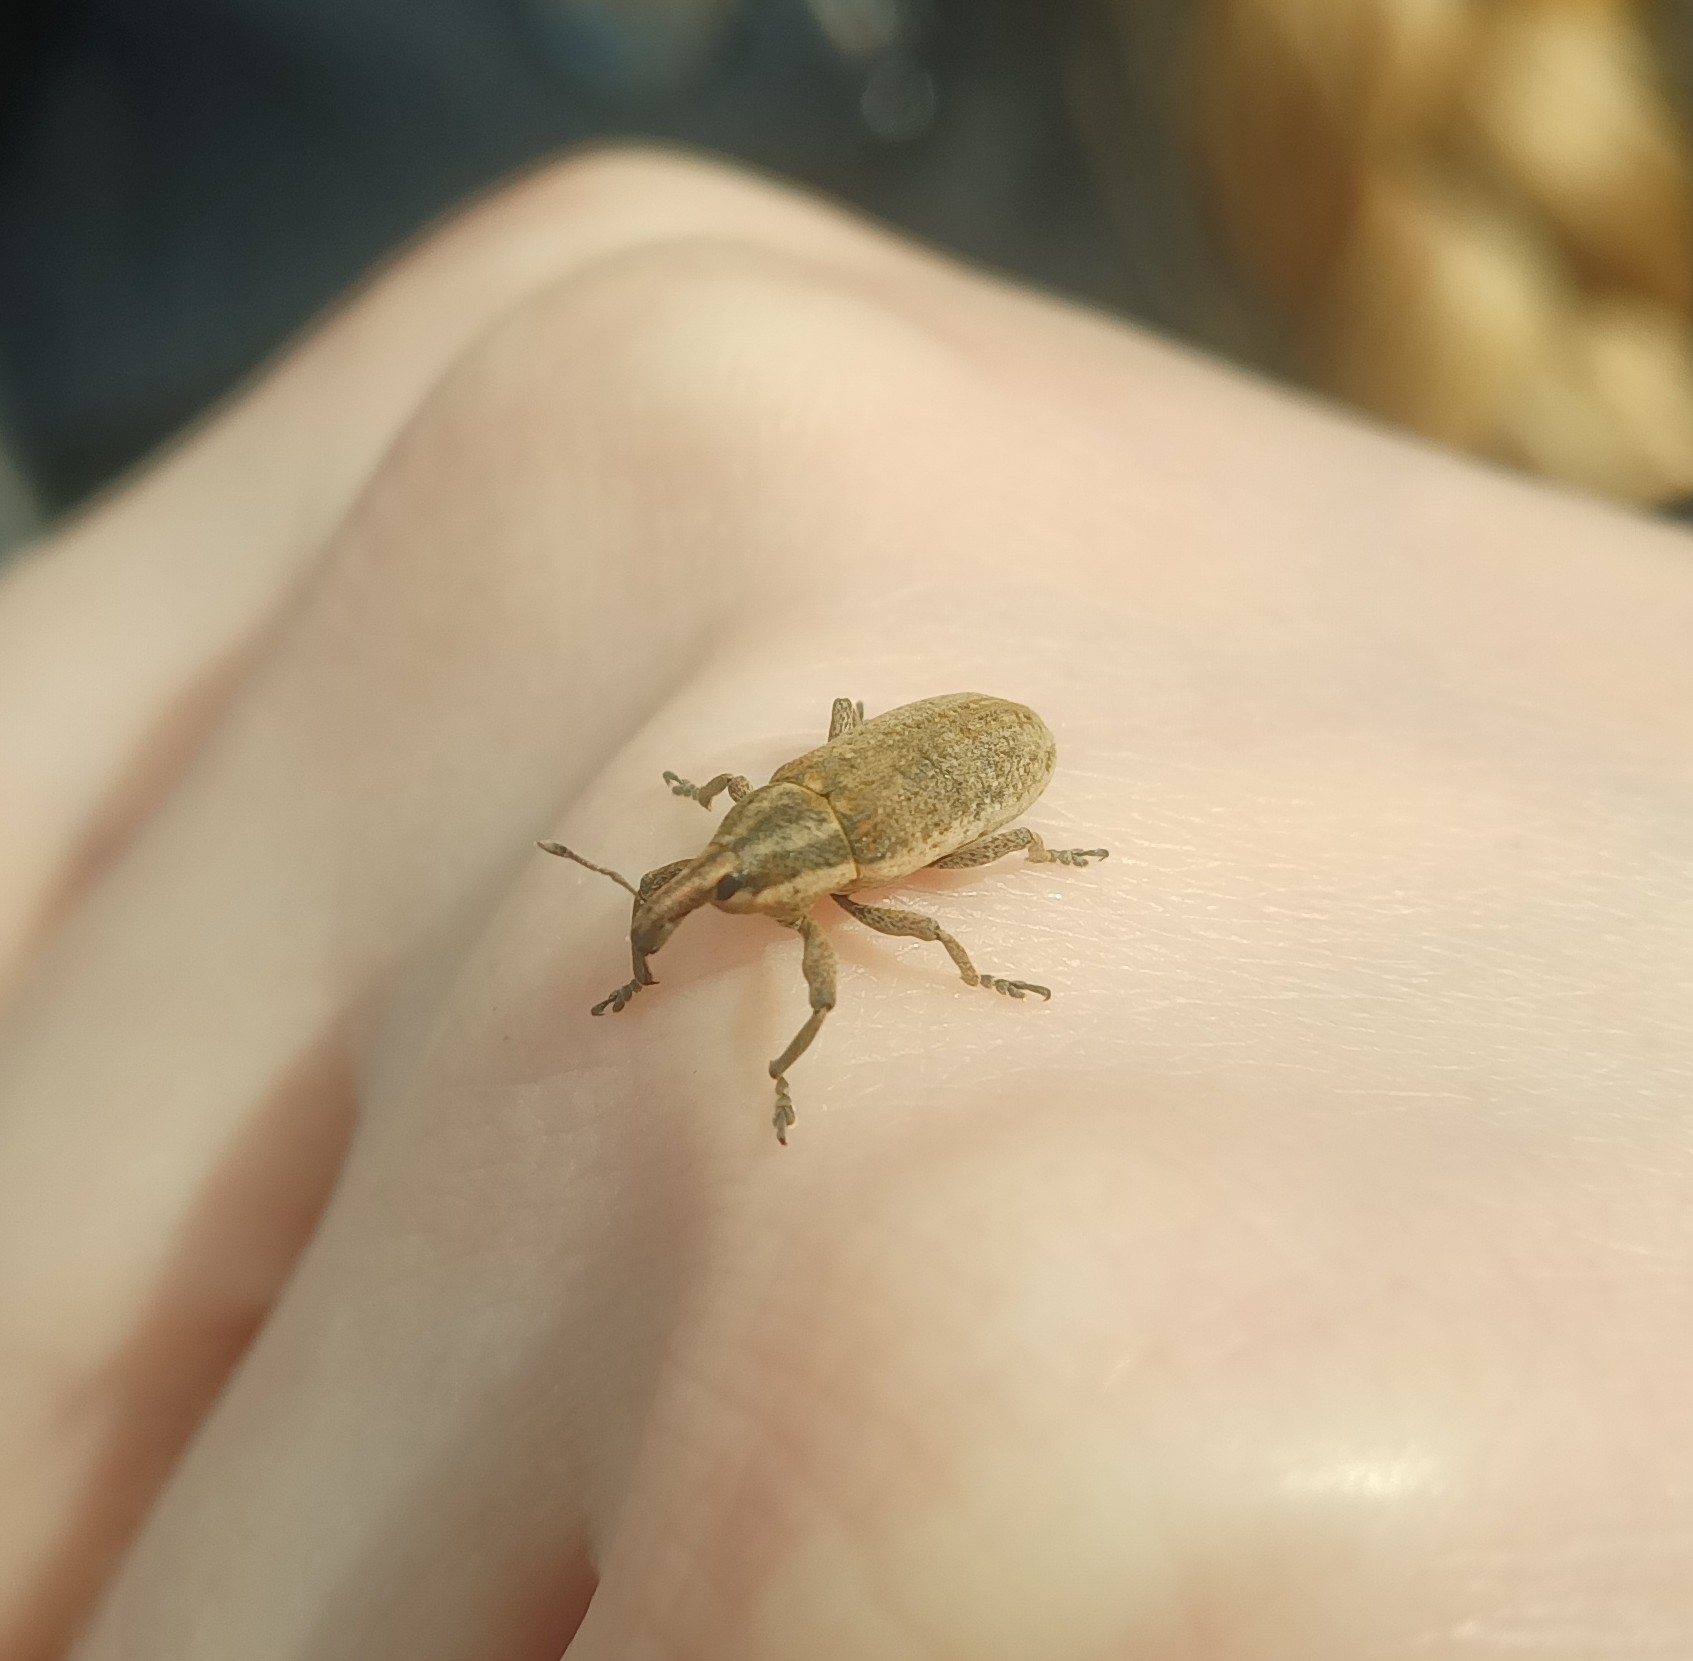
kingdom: Animalia
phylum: Arthropoda
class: Insecta
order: Coleoptera
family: Curculionidae
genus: Lixus
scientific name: Lixus myagri
